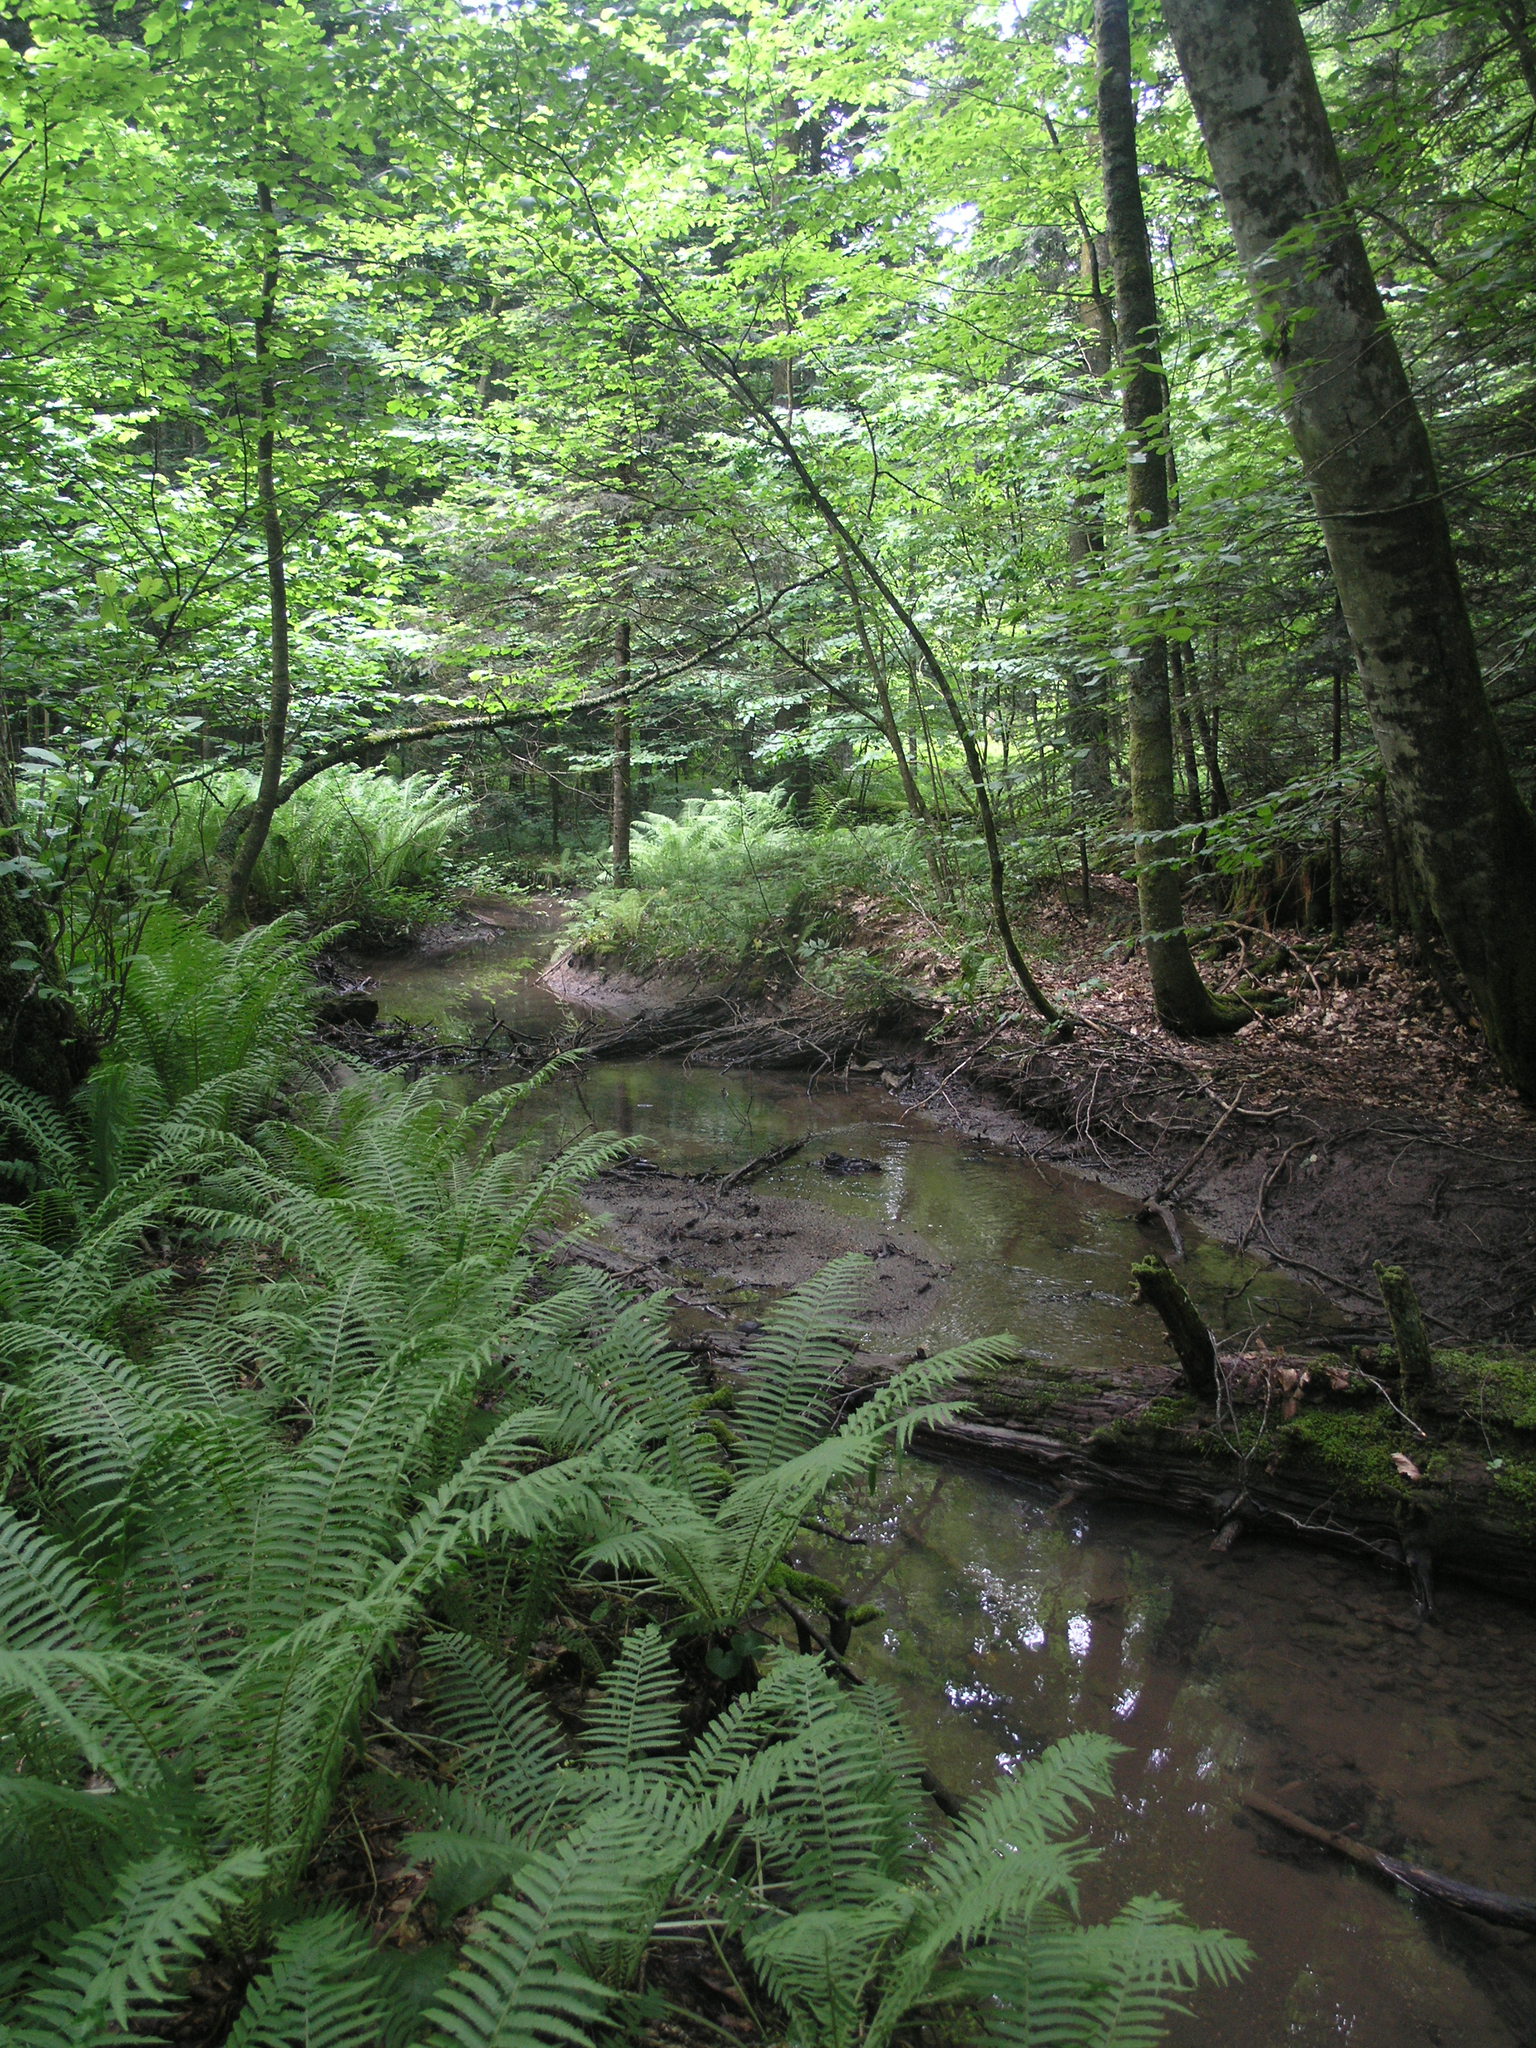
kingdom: Plantae
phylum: Tracheophyta
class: Polypodiopsida
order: Polypodiales
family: Onocleaceae
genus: Matteuccia
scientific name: Matteuccia struthiopteris
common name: Ostrich fern
